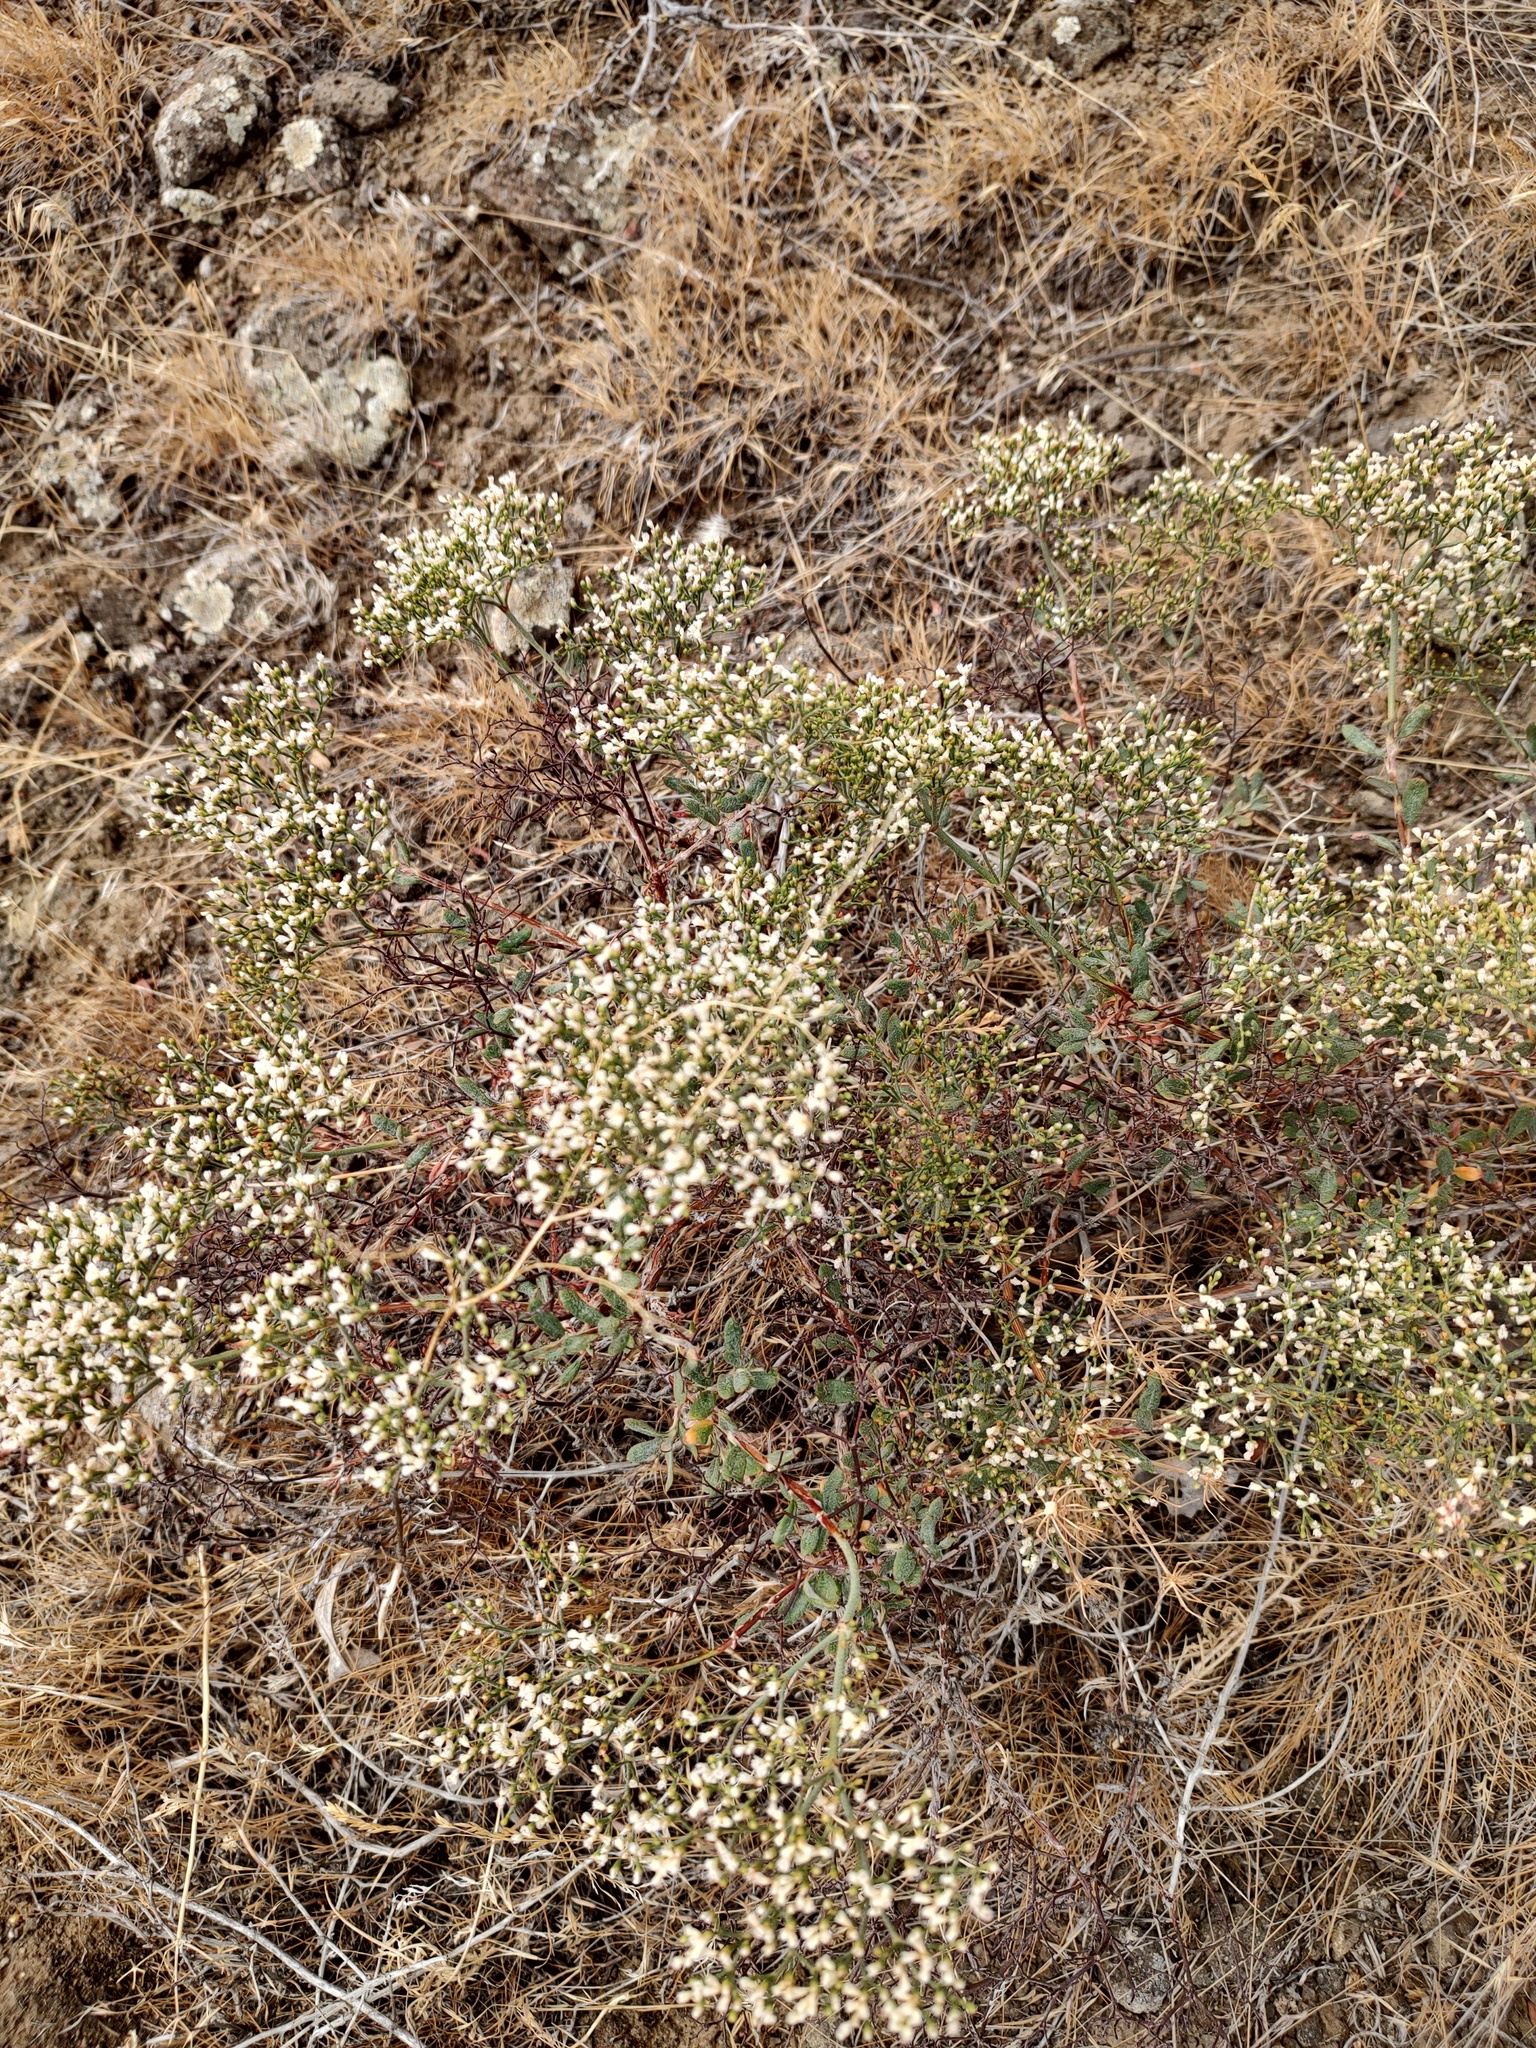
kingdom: Plantae
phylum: Tracheophyta
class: Magnoliopsida
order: Caryophyllales
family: Polygonaceae
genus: Eriogonum
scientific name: Eriogonum microtheca
